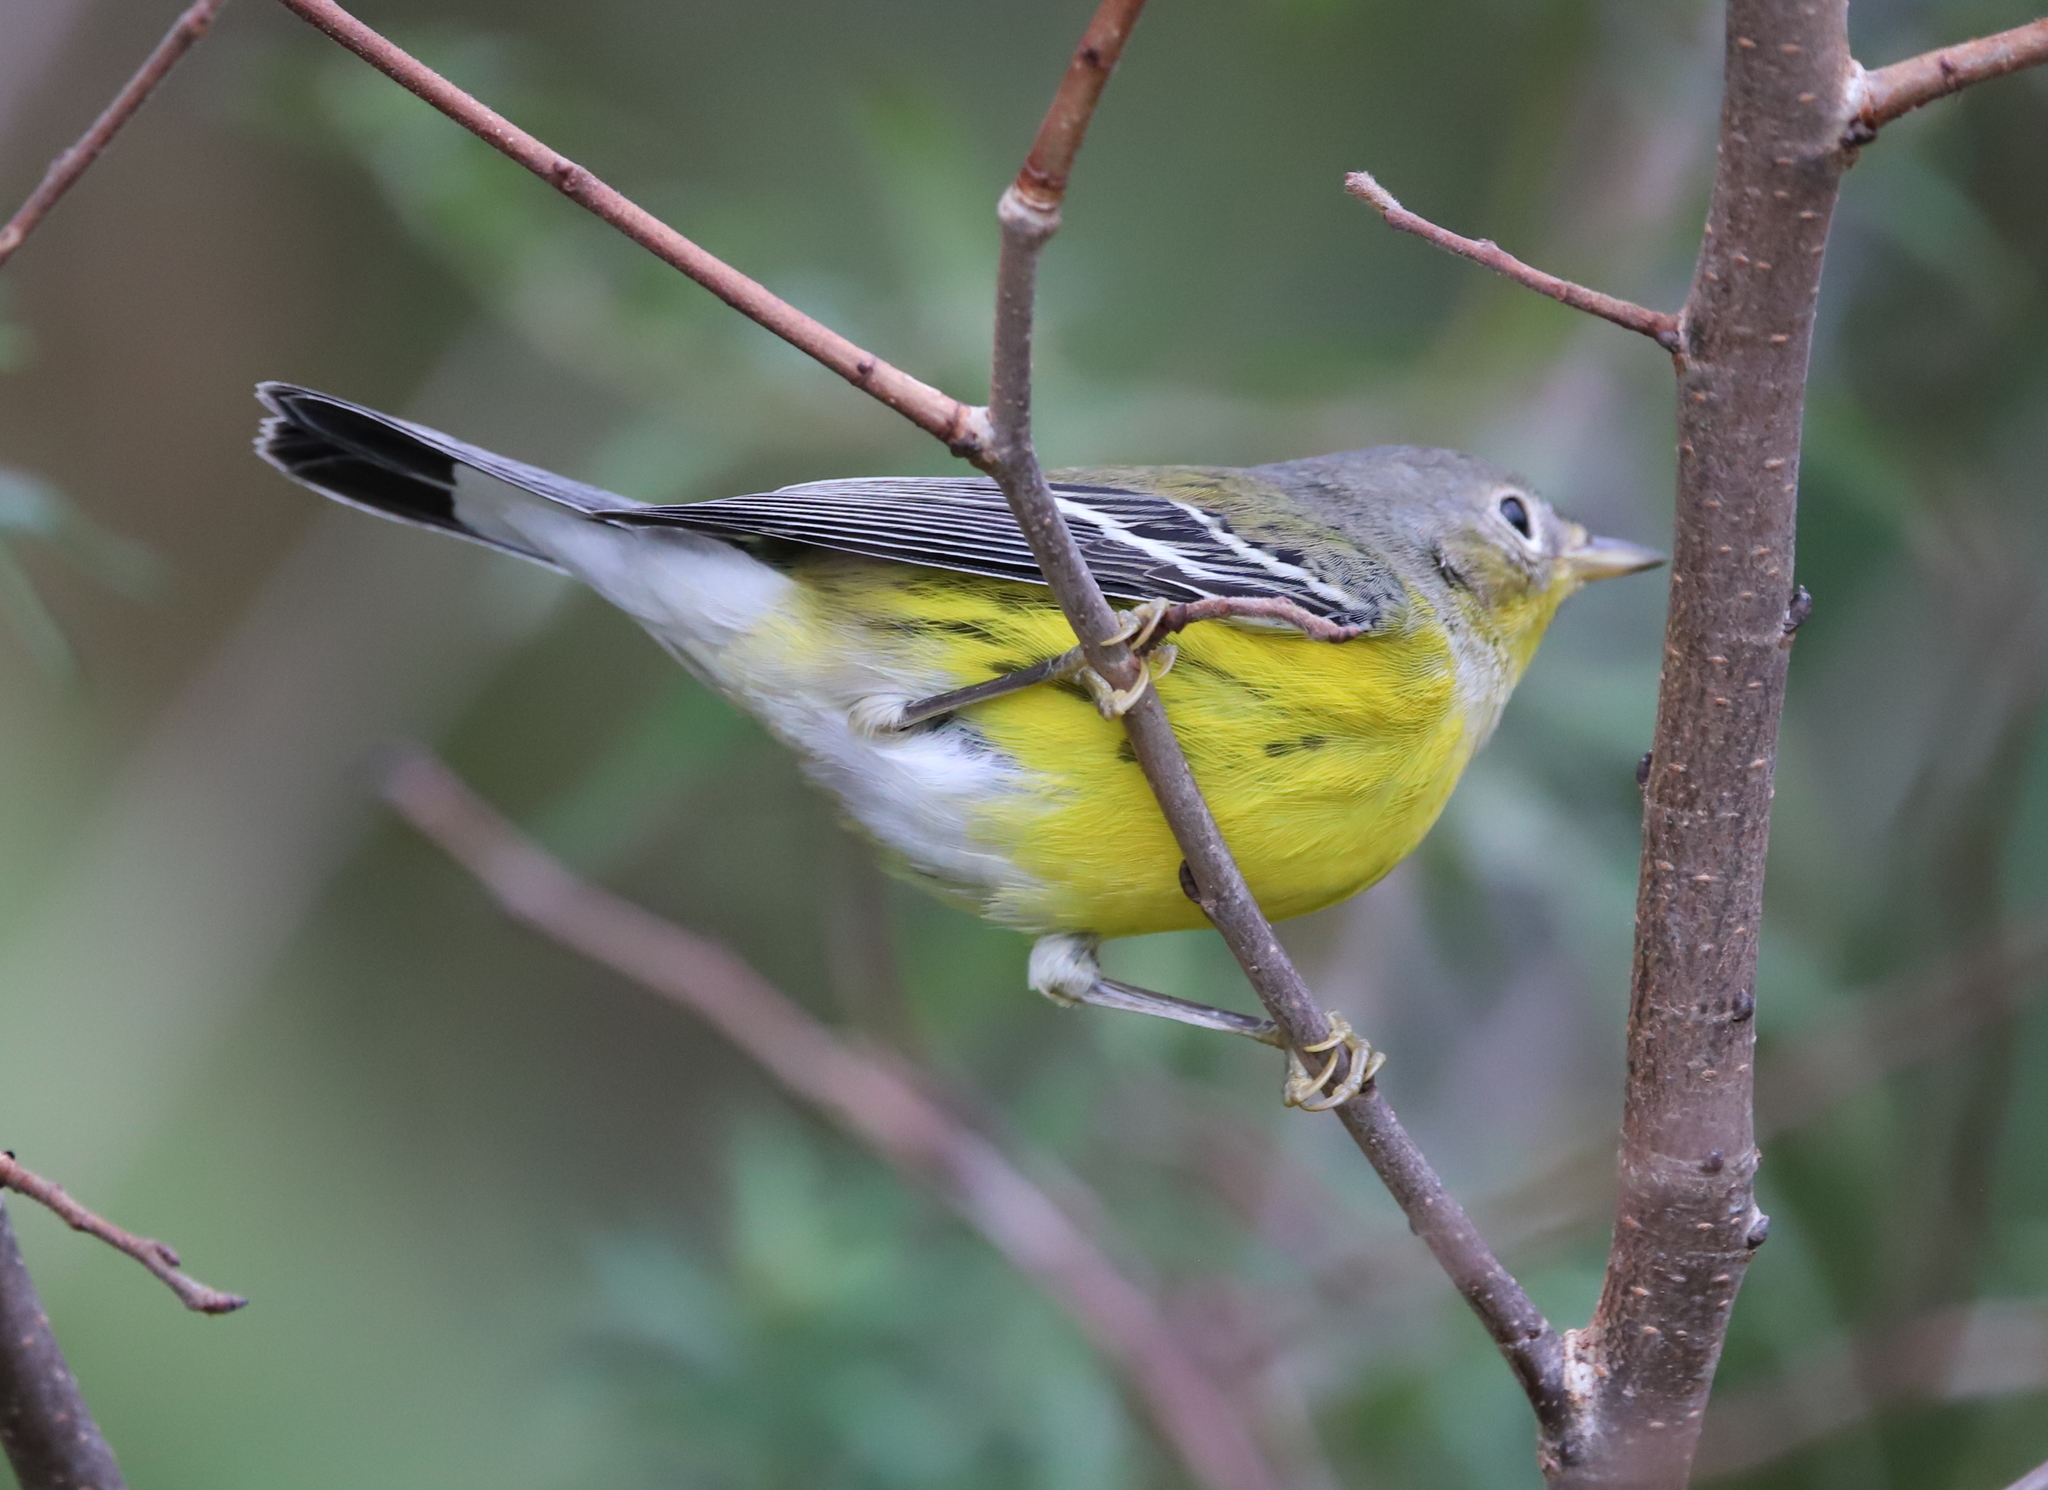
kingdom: Animalia
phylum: Chordata
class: Aves
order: Passeriformes
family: Parulidae
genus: Setophaga
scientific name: Setophaga magnolia
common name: Magnolia warbler
